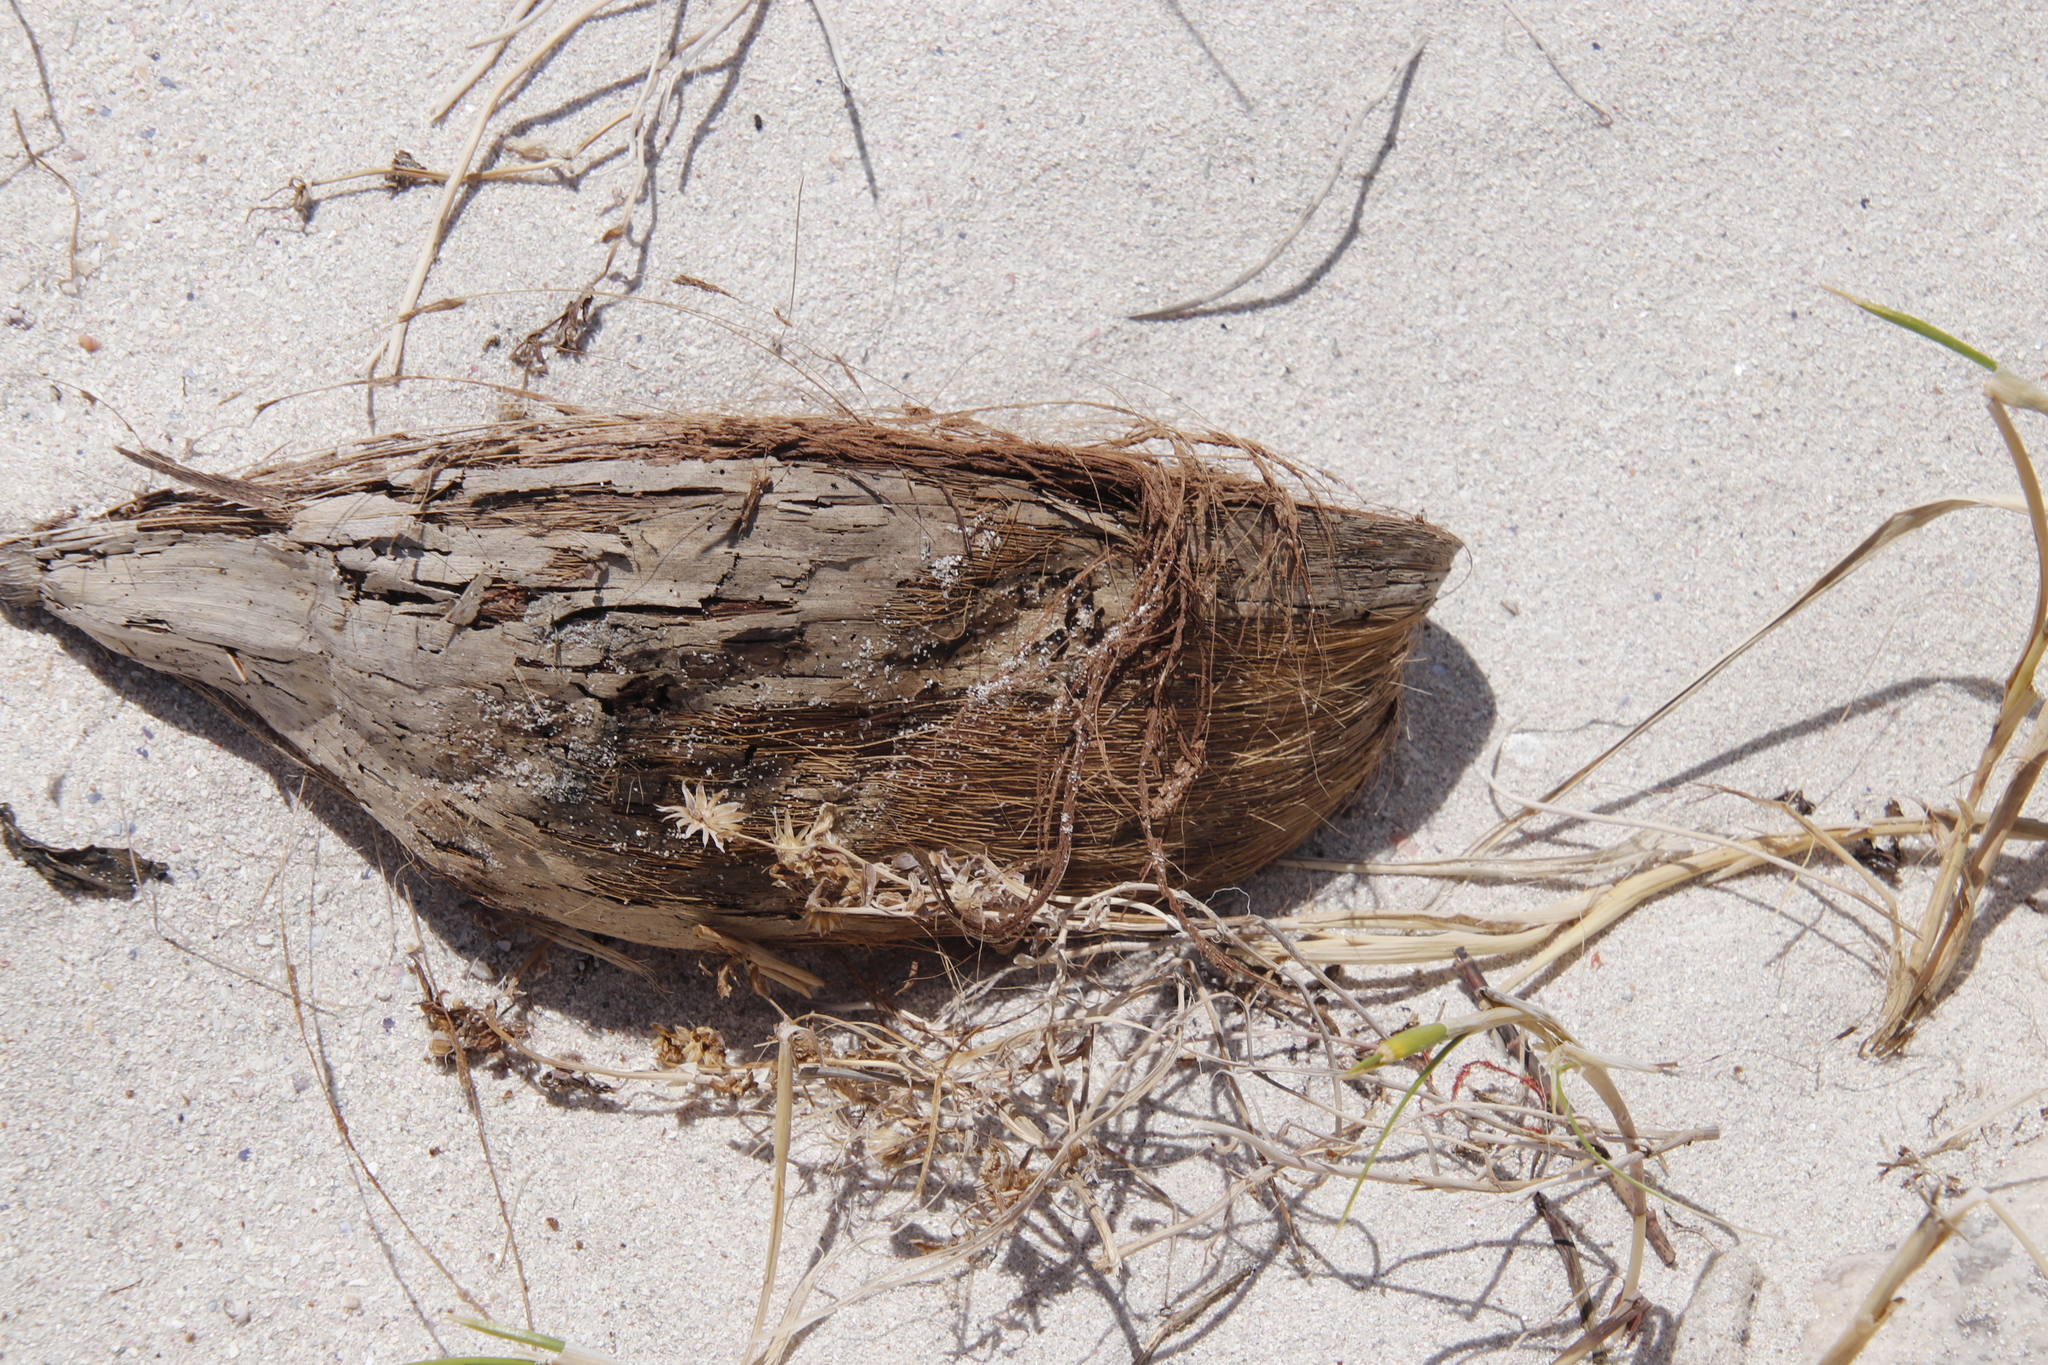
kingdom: Plantae
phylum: Tracheophyta
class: Liliopsida
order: Arecales
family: Arecaceae
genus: Cocos
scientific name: Cocos nucifera
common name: Coconut palm
